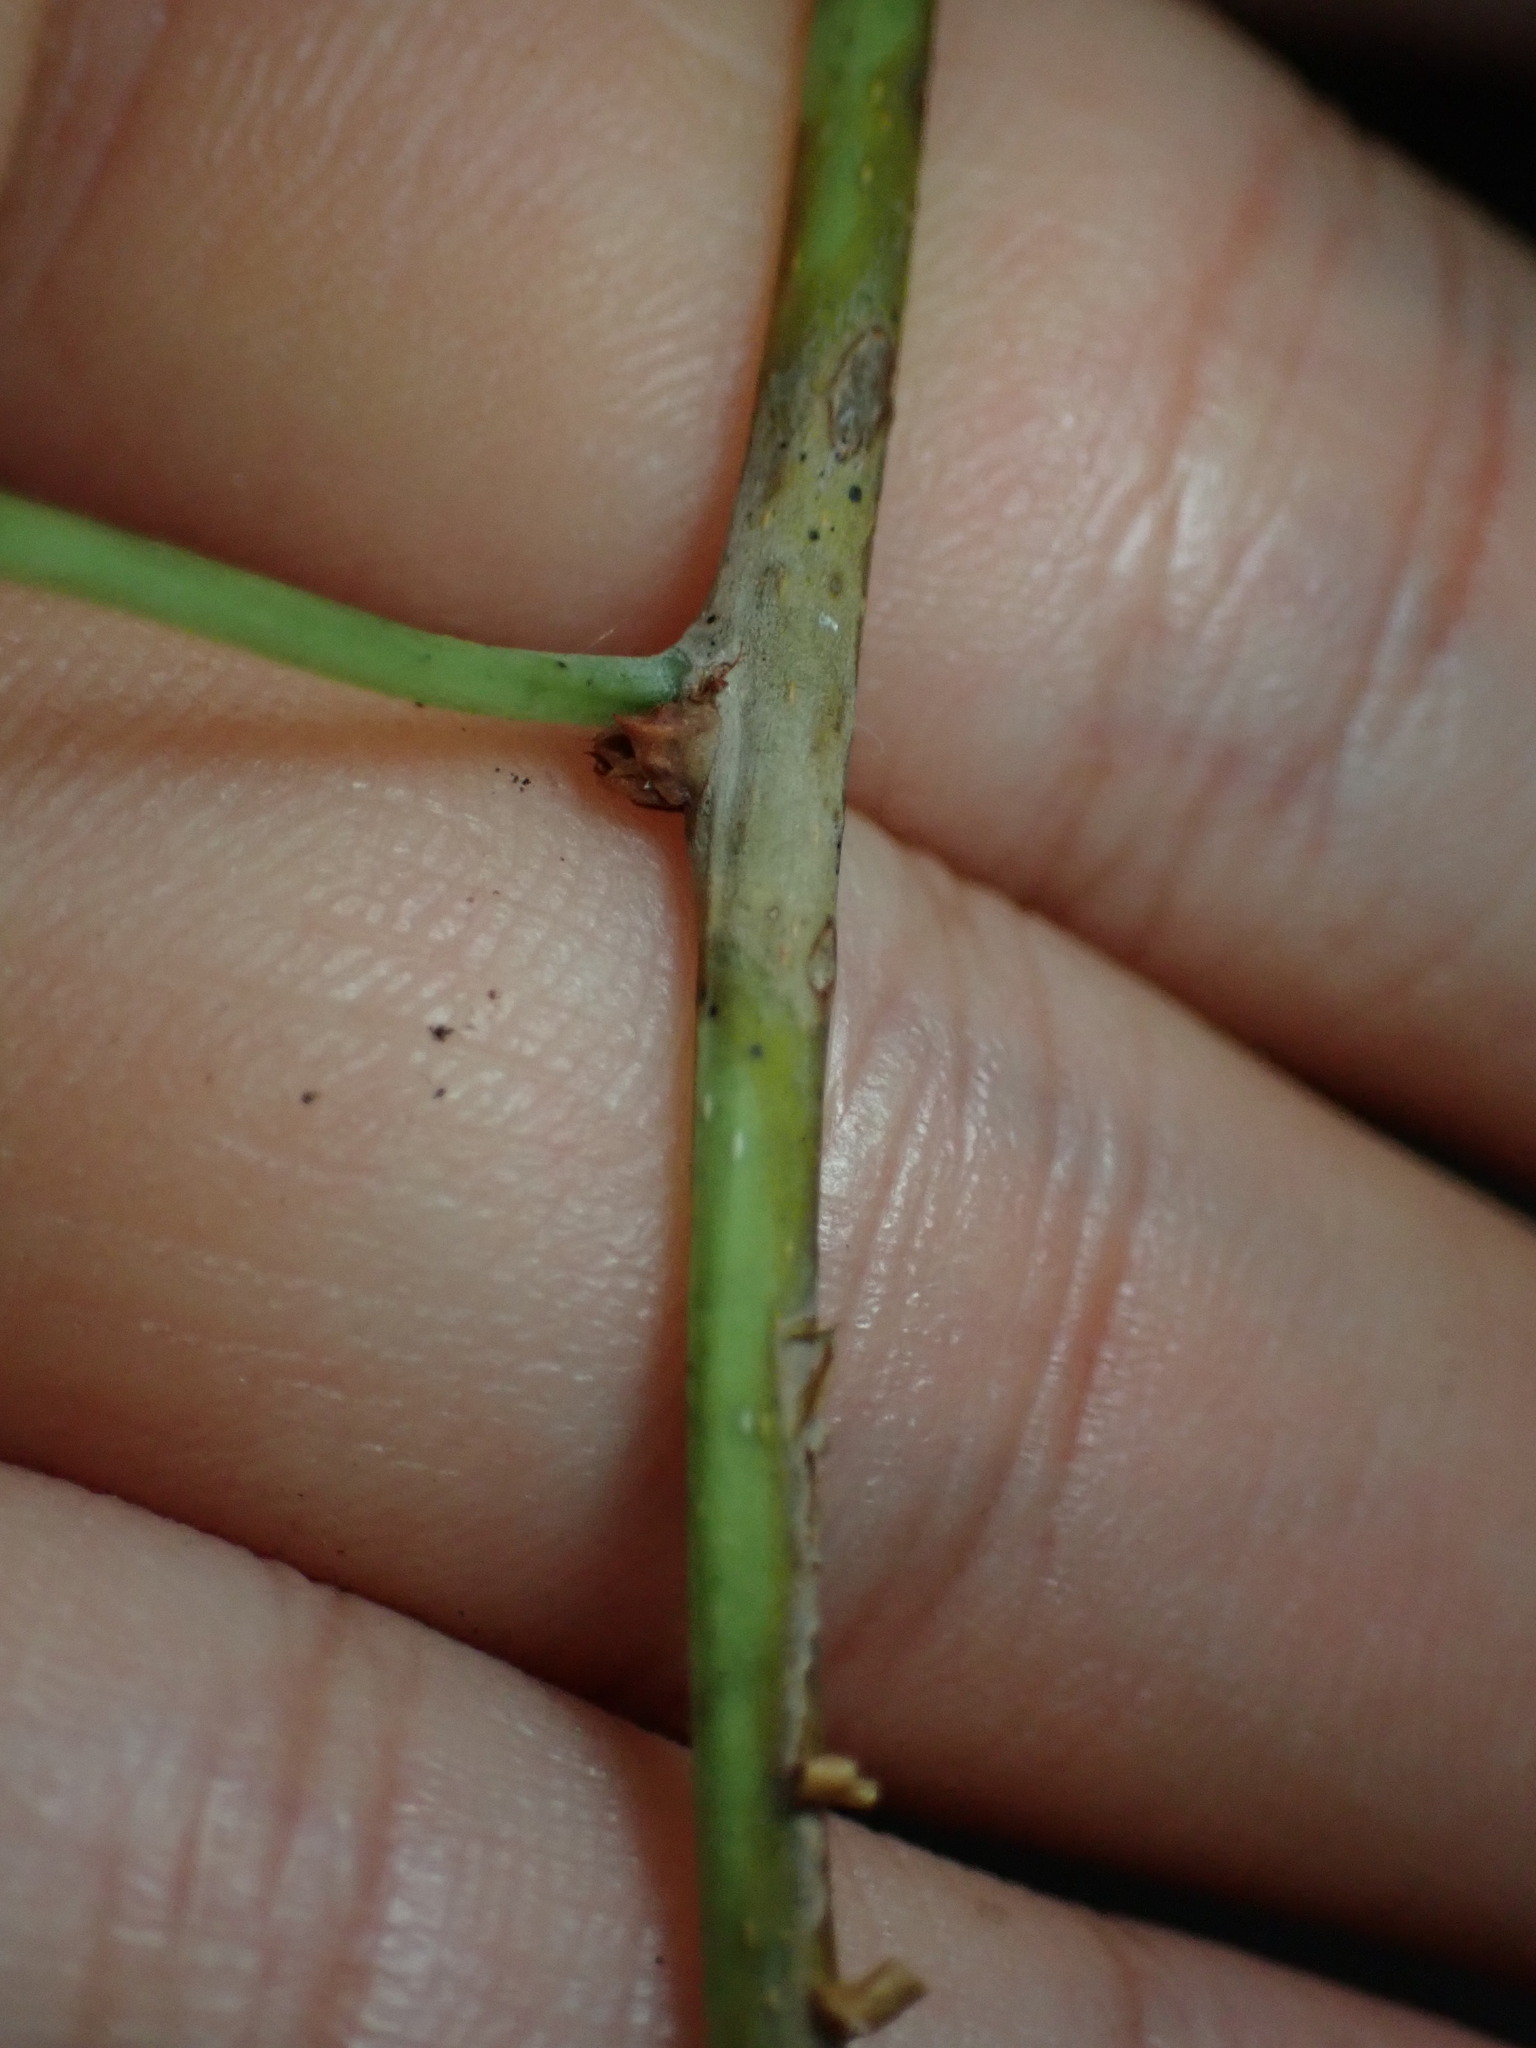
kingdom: Plantae
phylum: Tracheophyta
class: Magnoliopsida
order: Celastrales
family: Celastraceae
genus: Celastrus
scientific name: Celastrus orbiculatus
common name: Oriental bittersweet
